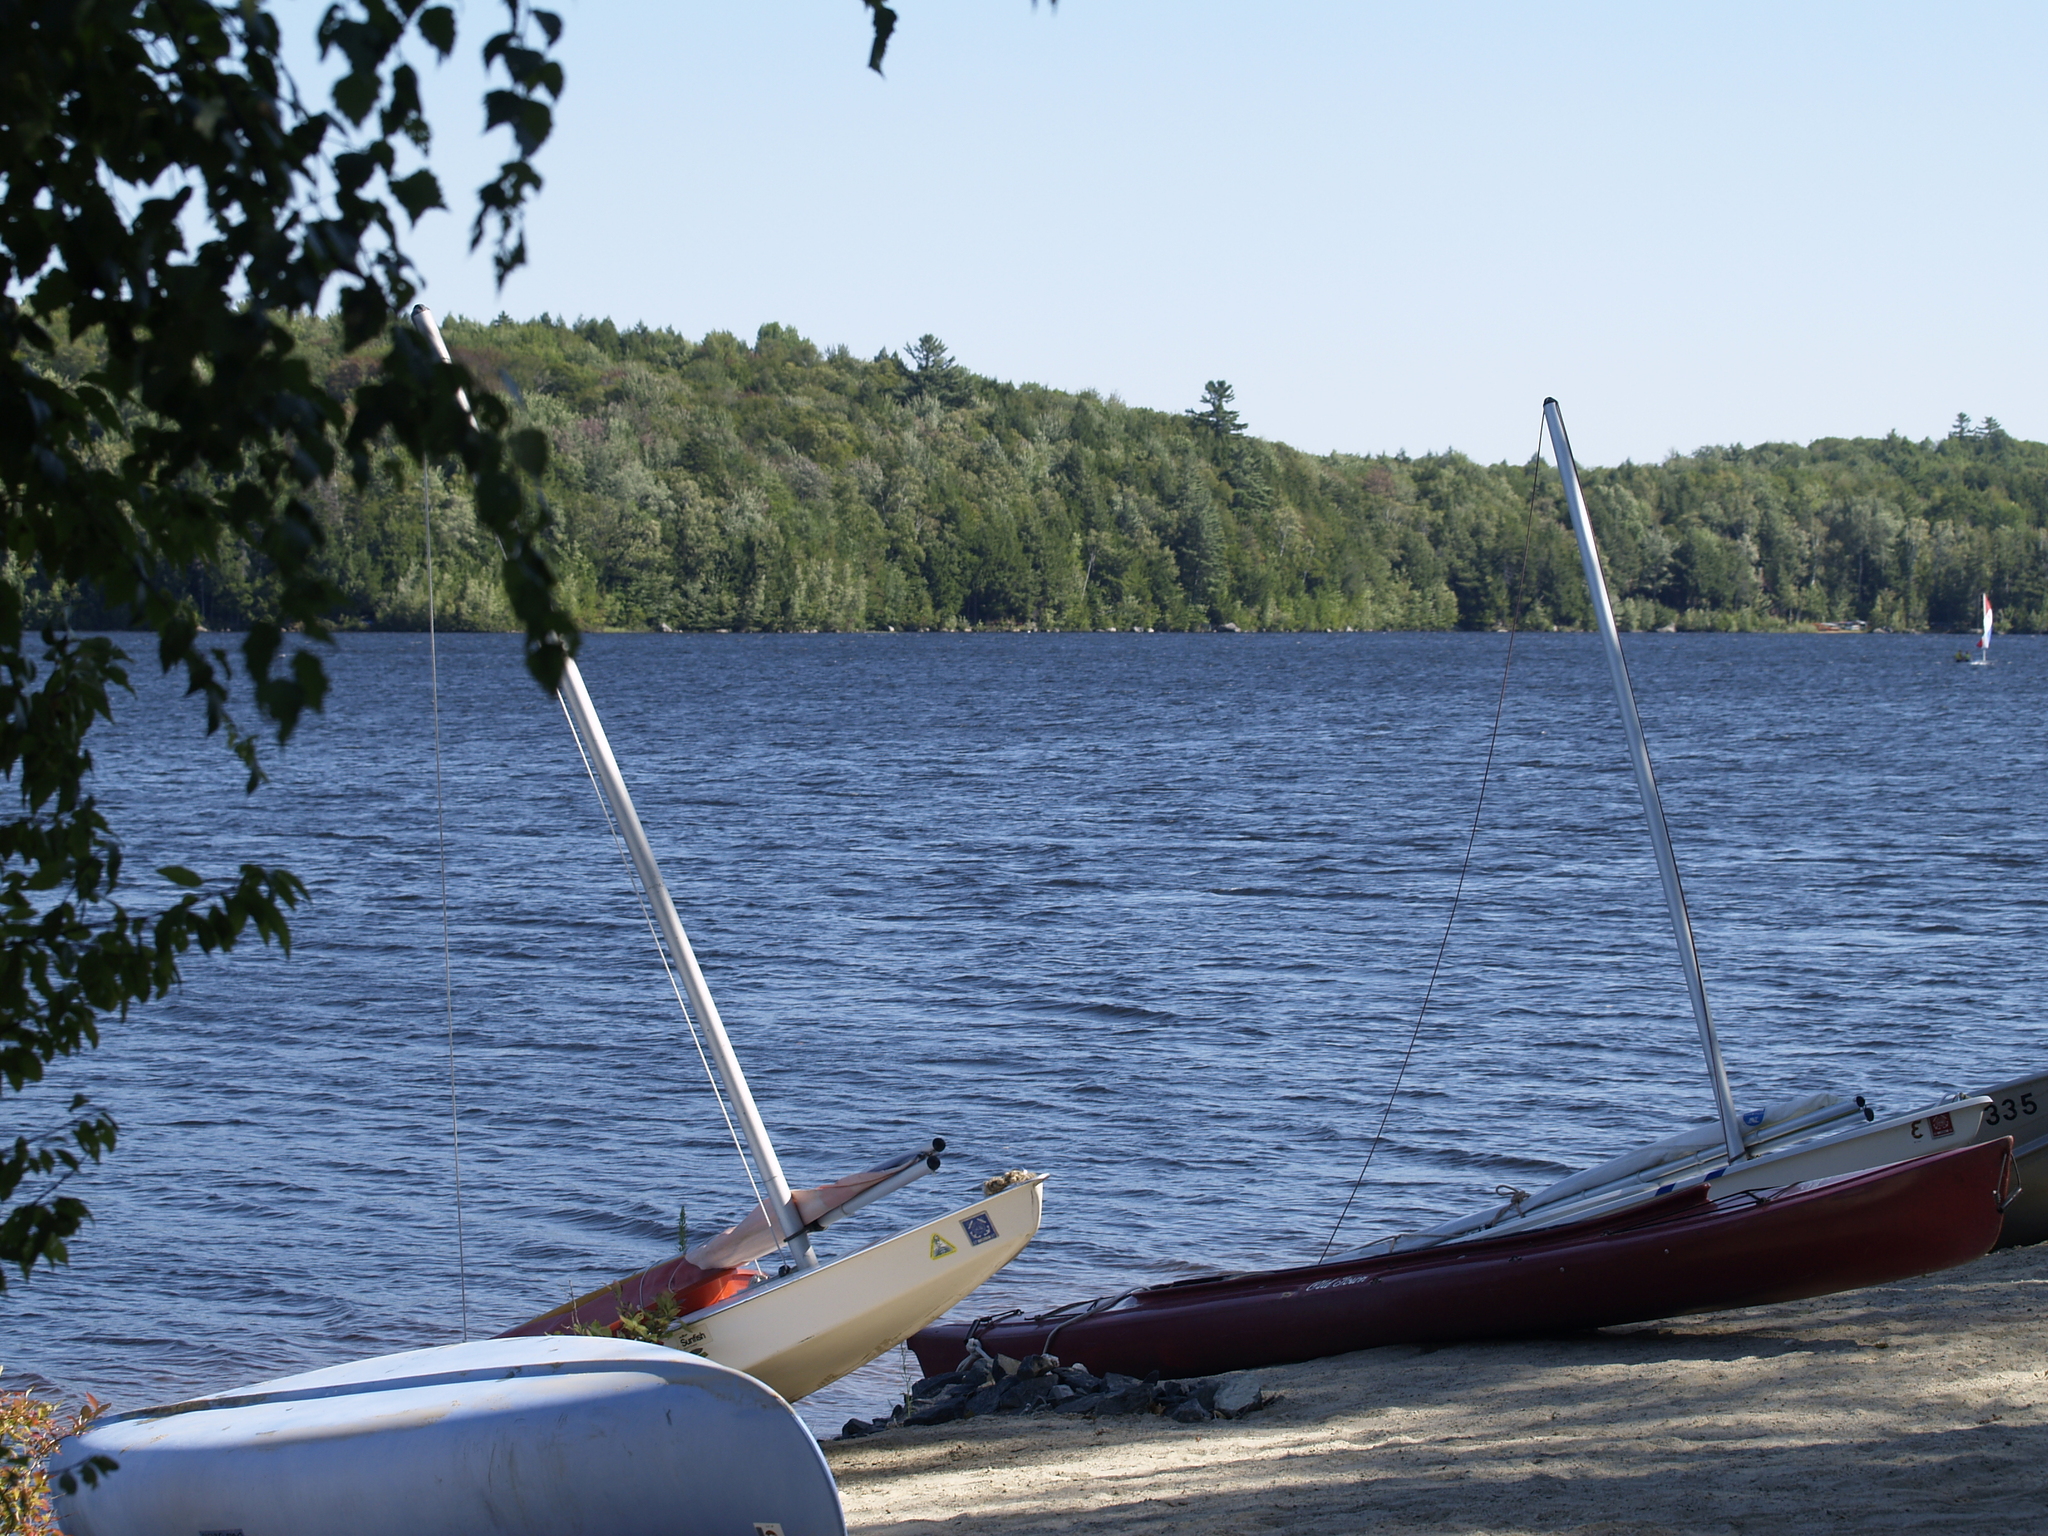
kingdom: Plantae
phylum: Tracheophyta
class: Pinopsida
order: Pinales
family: Pinaceae
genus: Pinus
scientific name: Pinus strobus
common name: Weymouth pine
